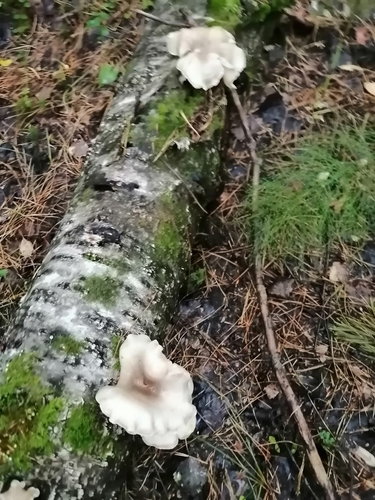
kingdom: Fungi
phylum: Basidiomycota
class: Agaricomycetes
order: Agaricales
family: Pleurotaceae
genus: Pleurotus
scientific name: Pleurotus pulmonarius
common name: Pale oyster
